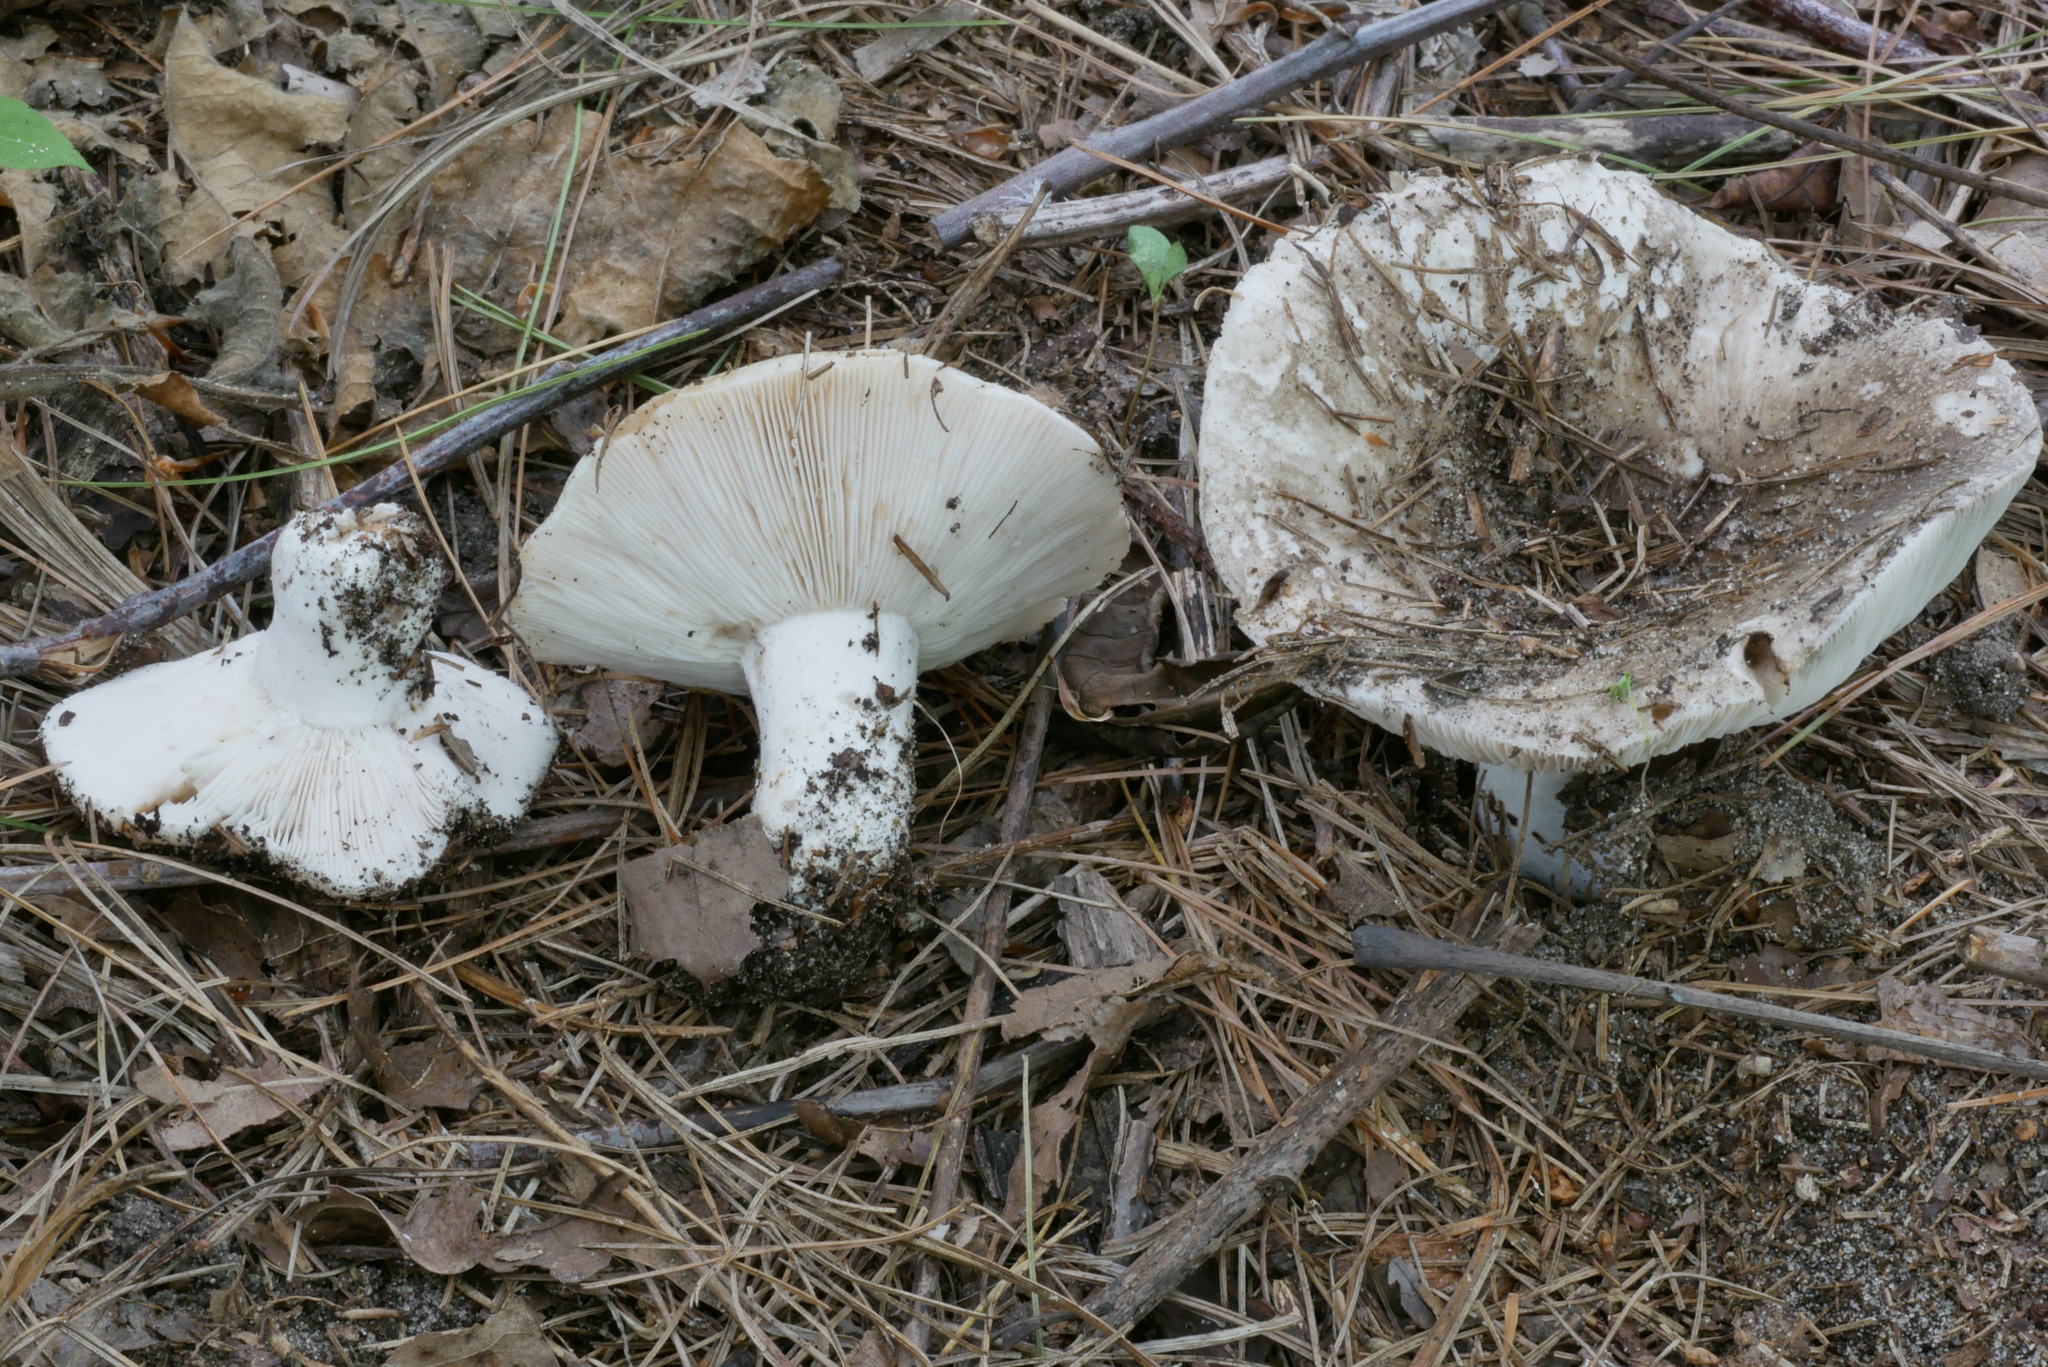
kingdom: Fungi
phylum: Basidiomycota
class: Agaricomycetes
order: Russulales
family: Russulaceae
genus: Russula
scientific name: Russula adusta
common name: Winecork brittlegill
